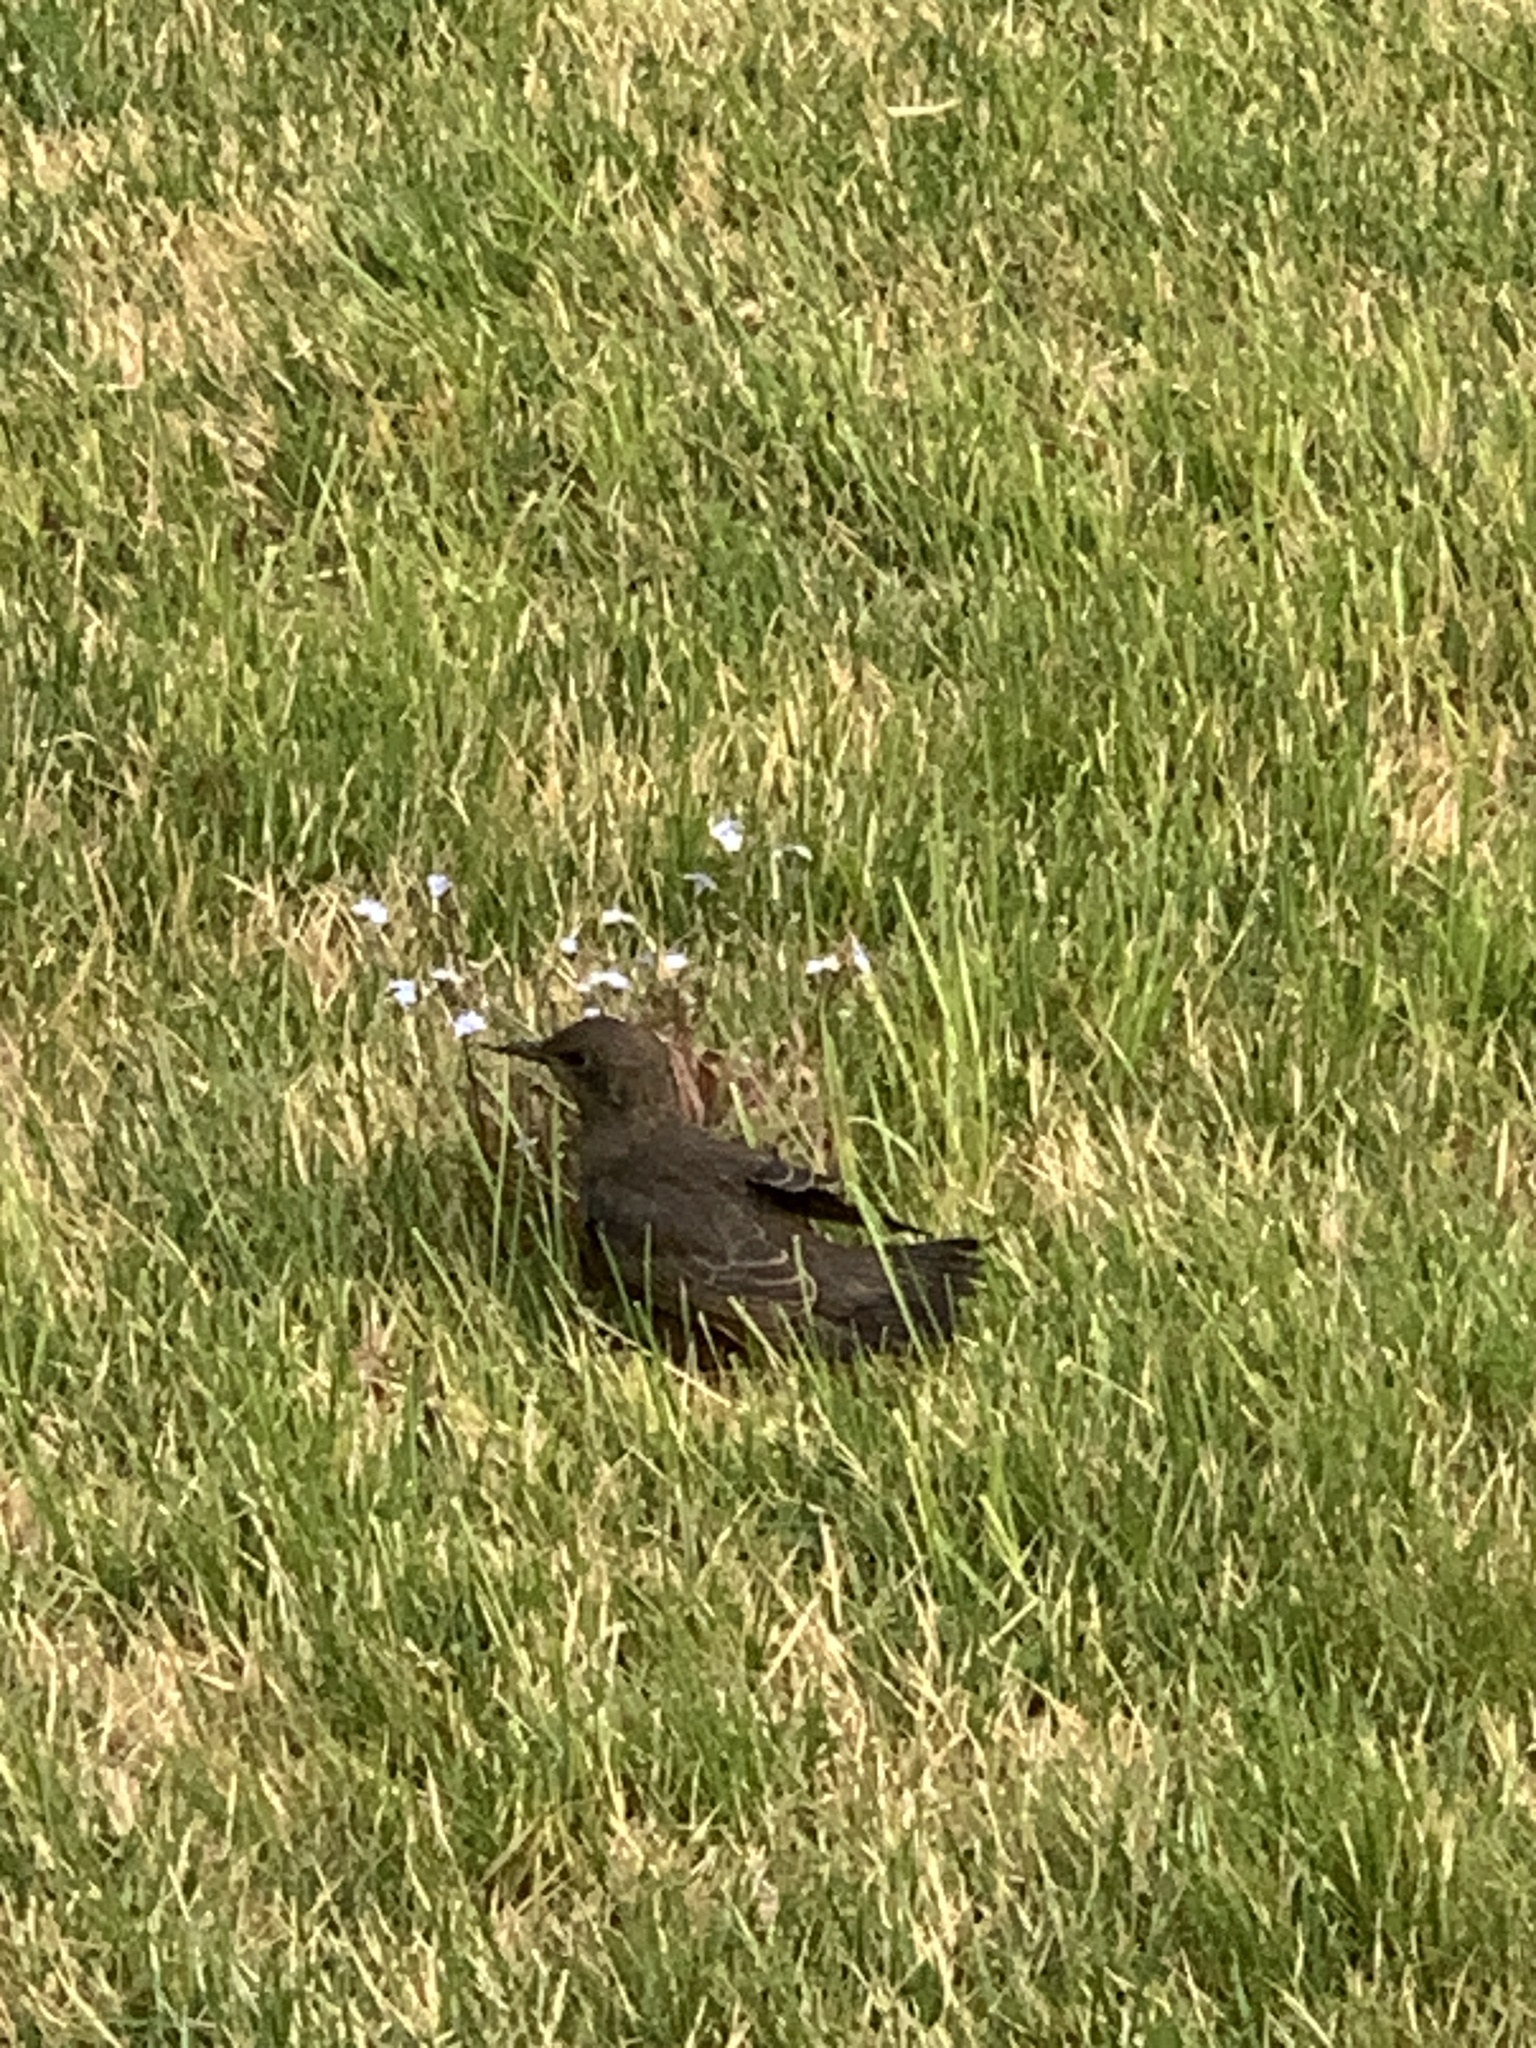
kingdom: Animalia
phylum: Chordata
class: Aves
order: Passeriformes
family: Sturnidae
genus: Sturnus
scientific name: Sturnus vulgaris
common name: Common starling
